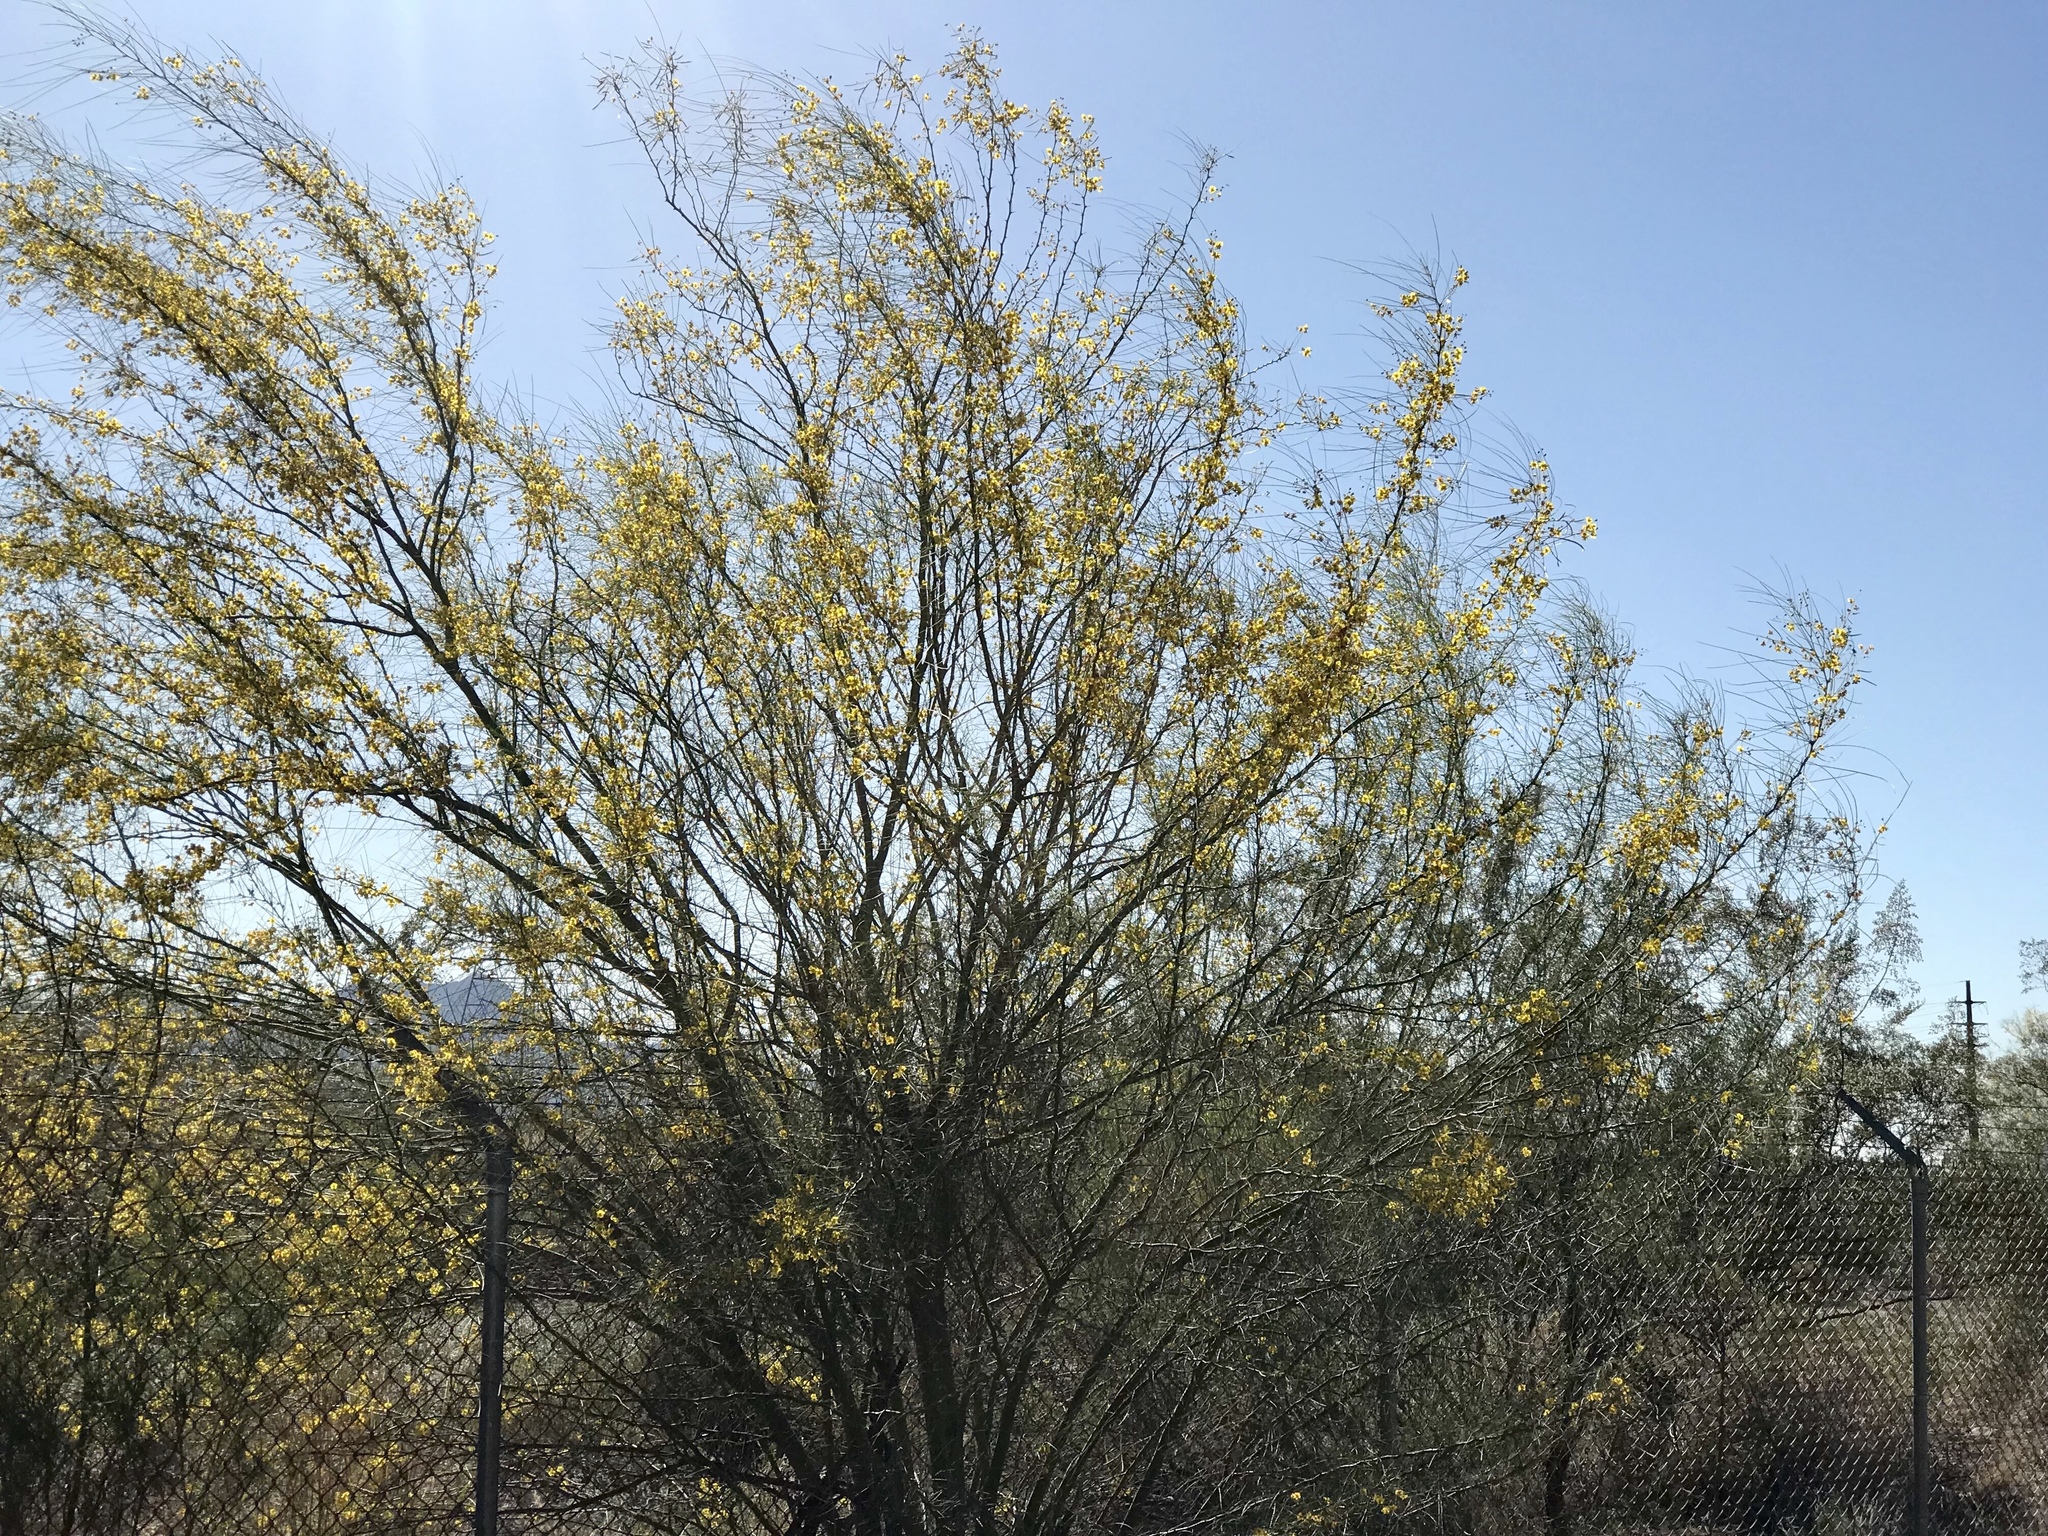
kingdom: Plantae
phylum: Tracheophyta
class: Magnoliopsida
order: Fabales
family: Fabaceae
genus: Parkinsonia
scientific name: Parkinsonia aculeata
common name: Jerusalem thorn
